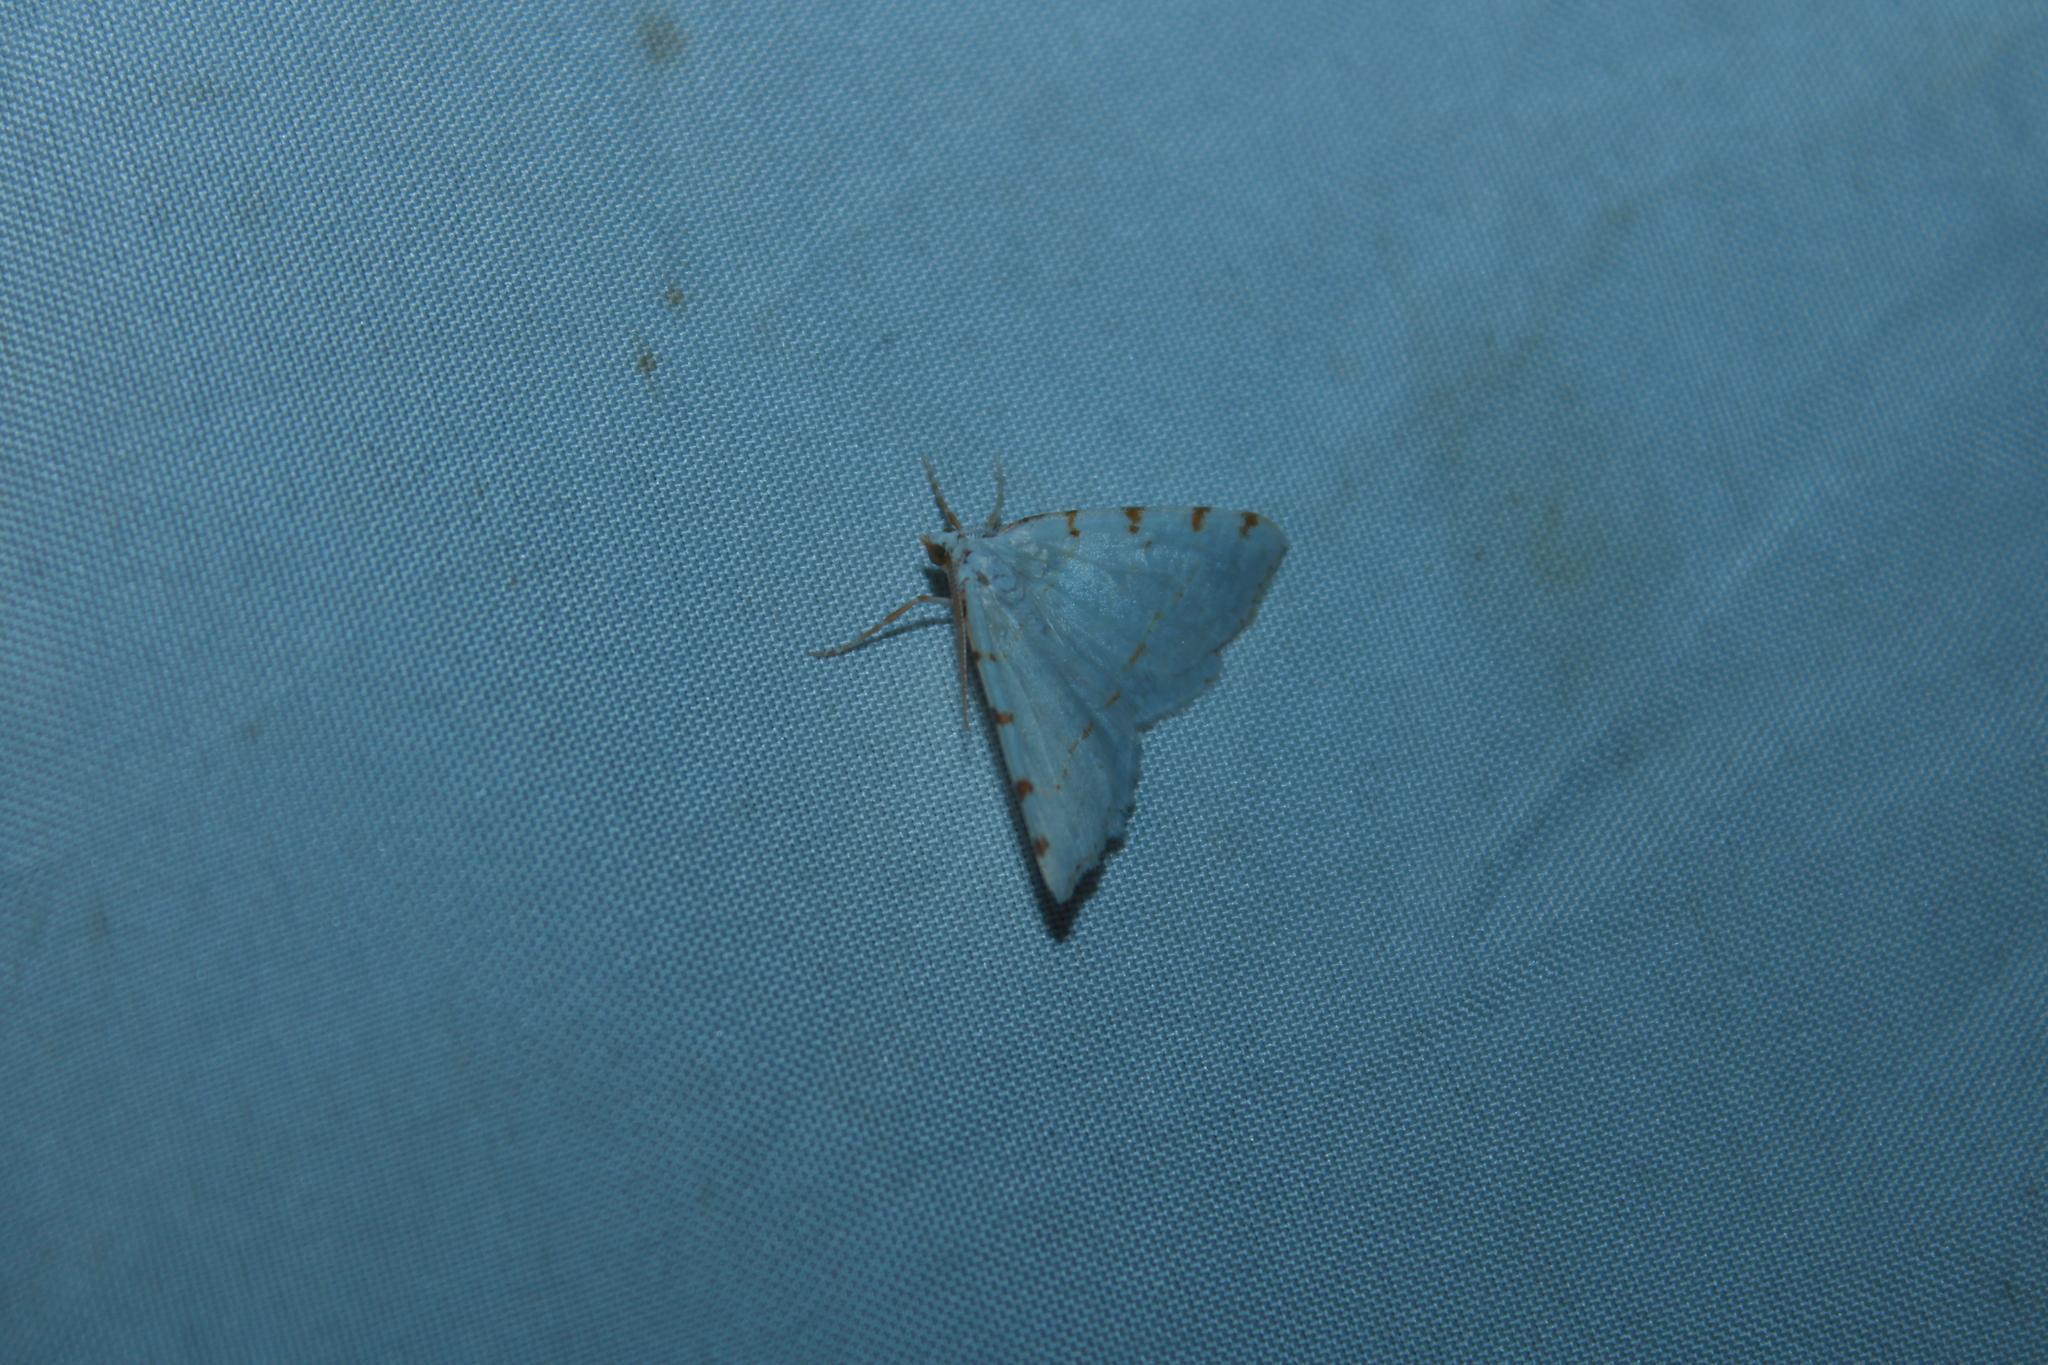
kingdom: Animalia
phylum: Arthropoda
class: Insecta
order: Lepidoptera
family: Geometridae
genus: Macaria
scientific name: Macaria pustularia
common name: Lesser maple spanworm moth
